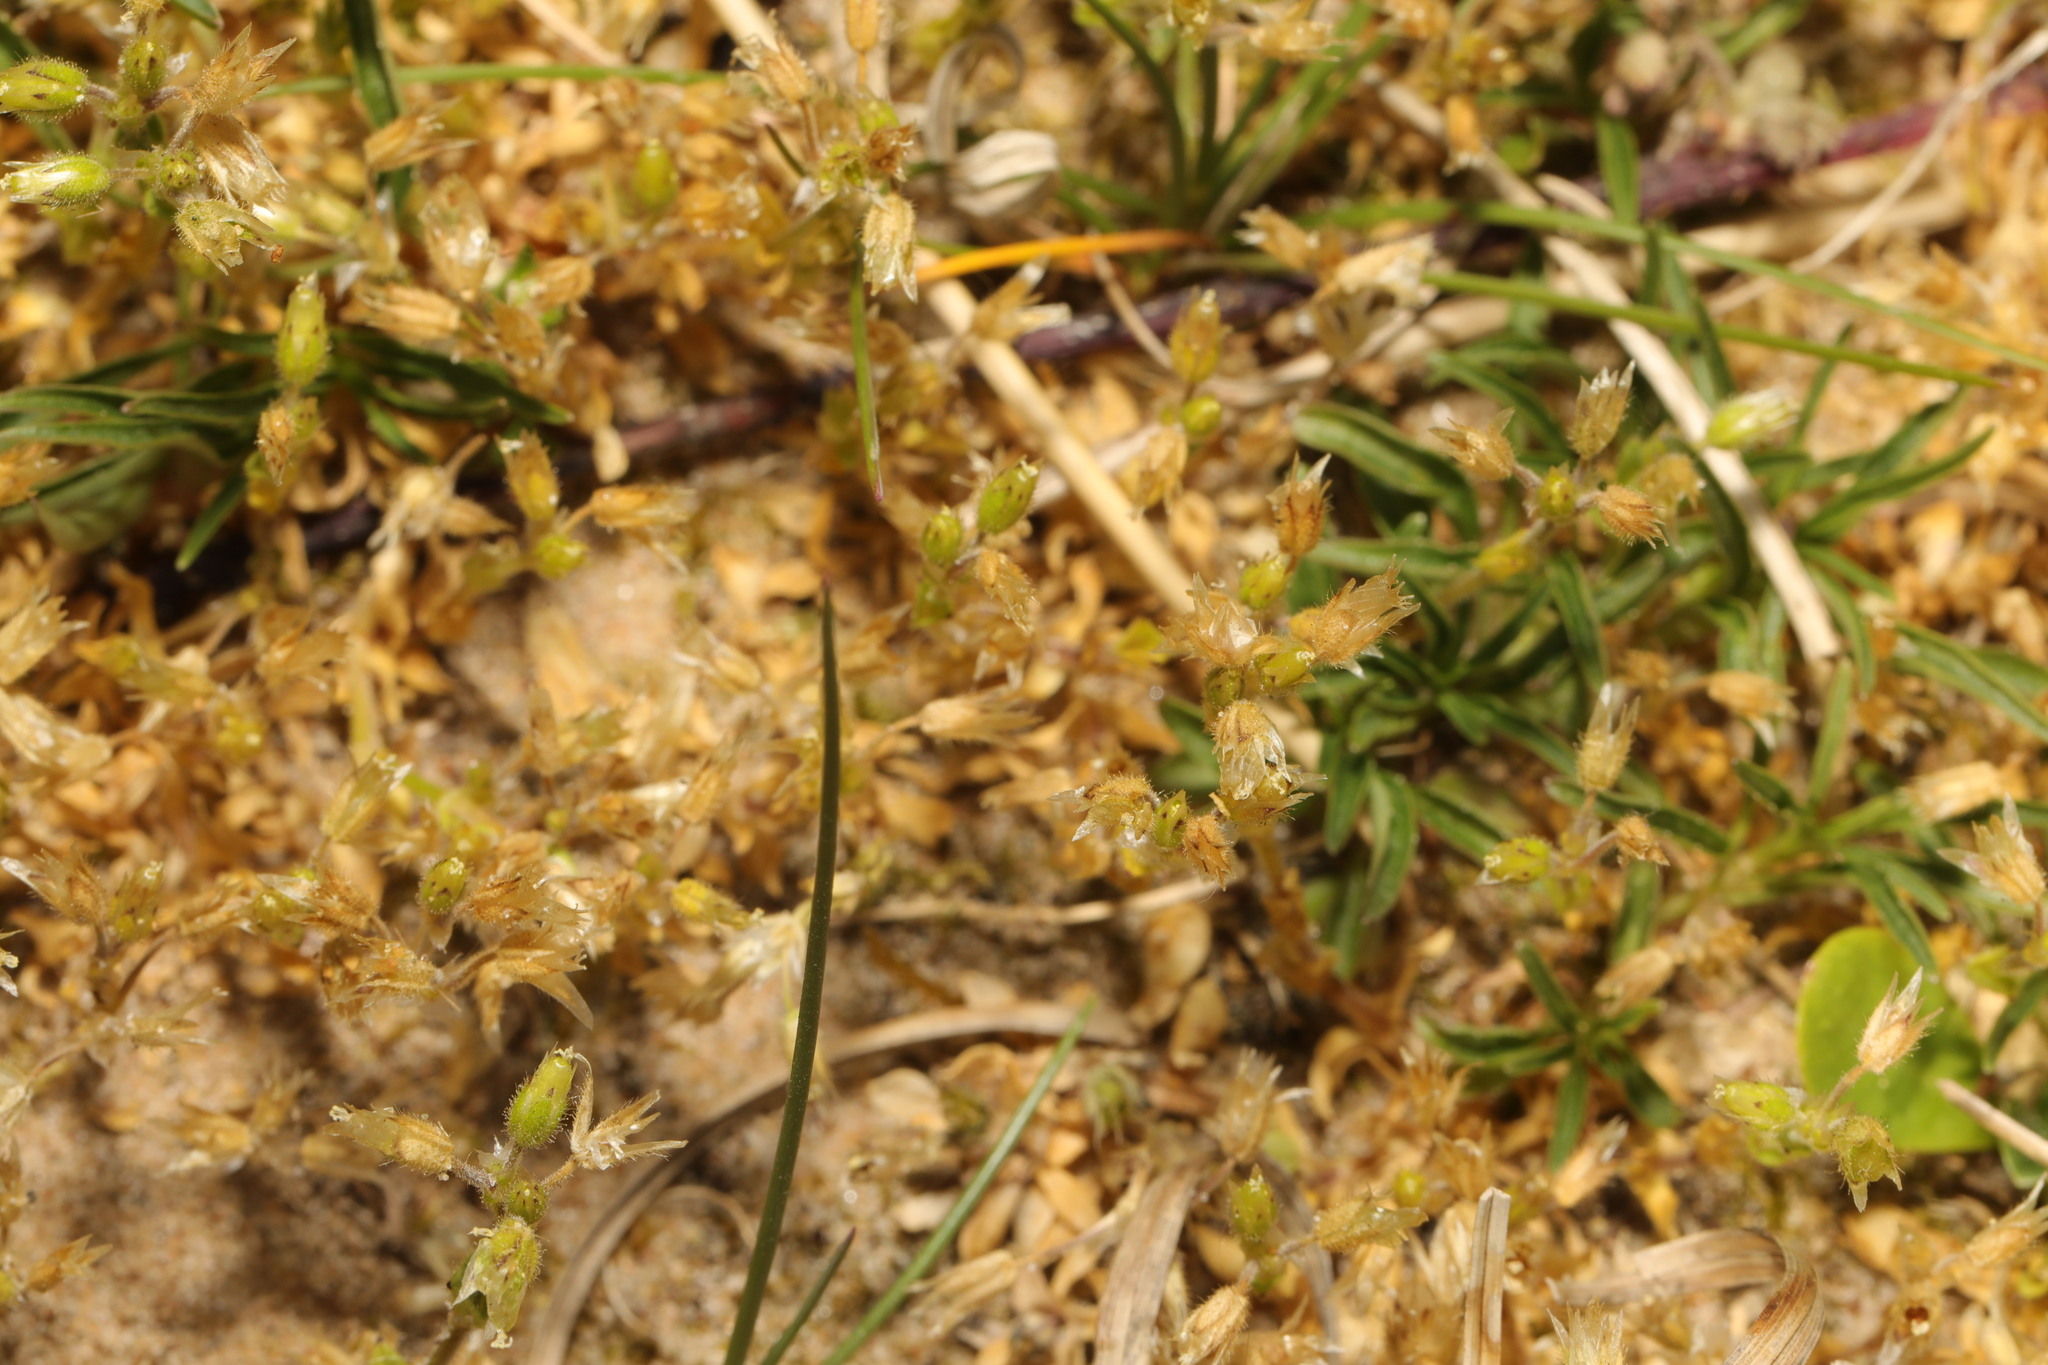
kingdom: Plantae
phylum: Tracheophyta
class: Magnoliopsida
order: Caryophyllales
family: Caryophyllaceae
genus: Cerastium
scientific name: Cerastium semidecandrum
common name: Little mouse-ear
